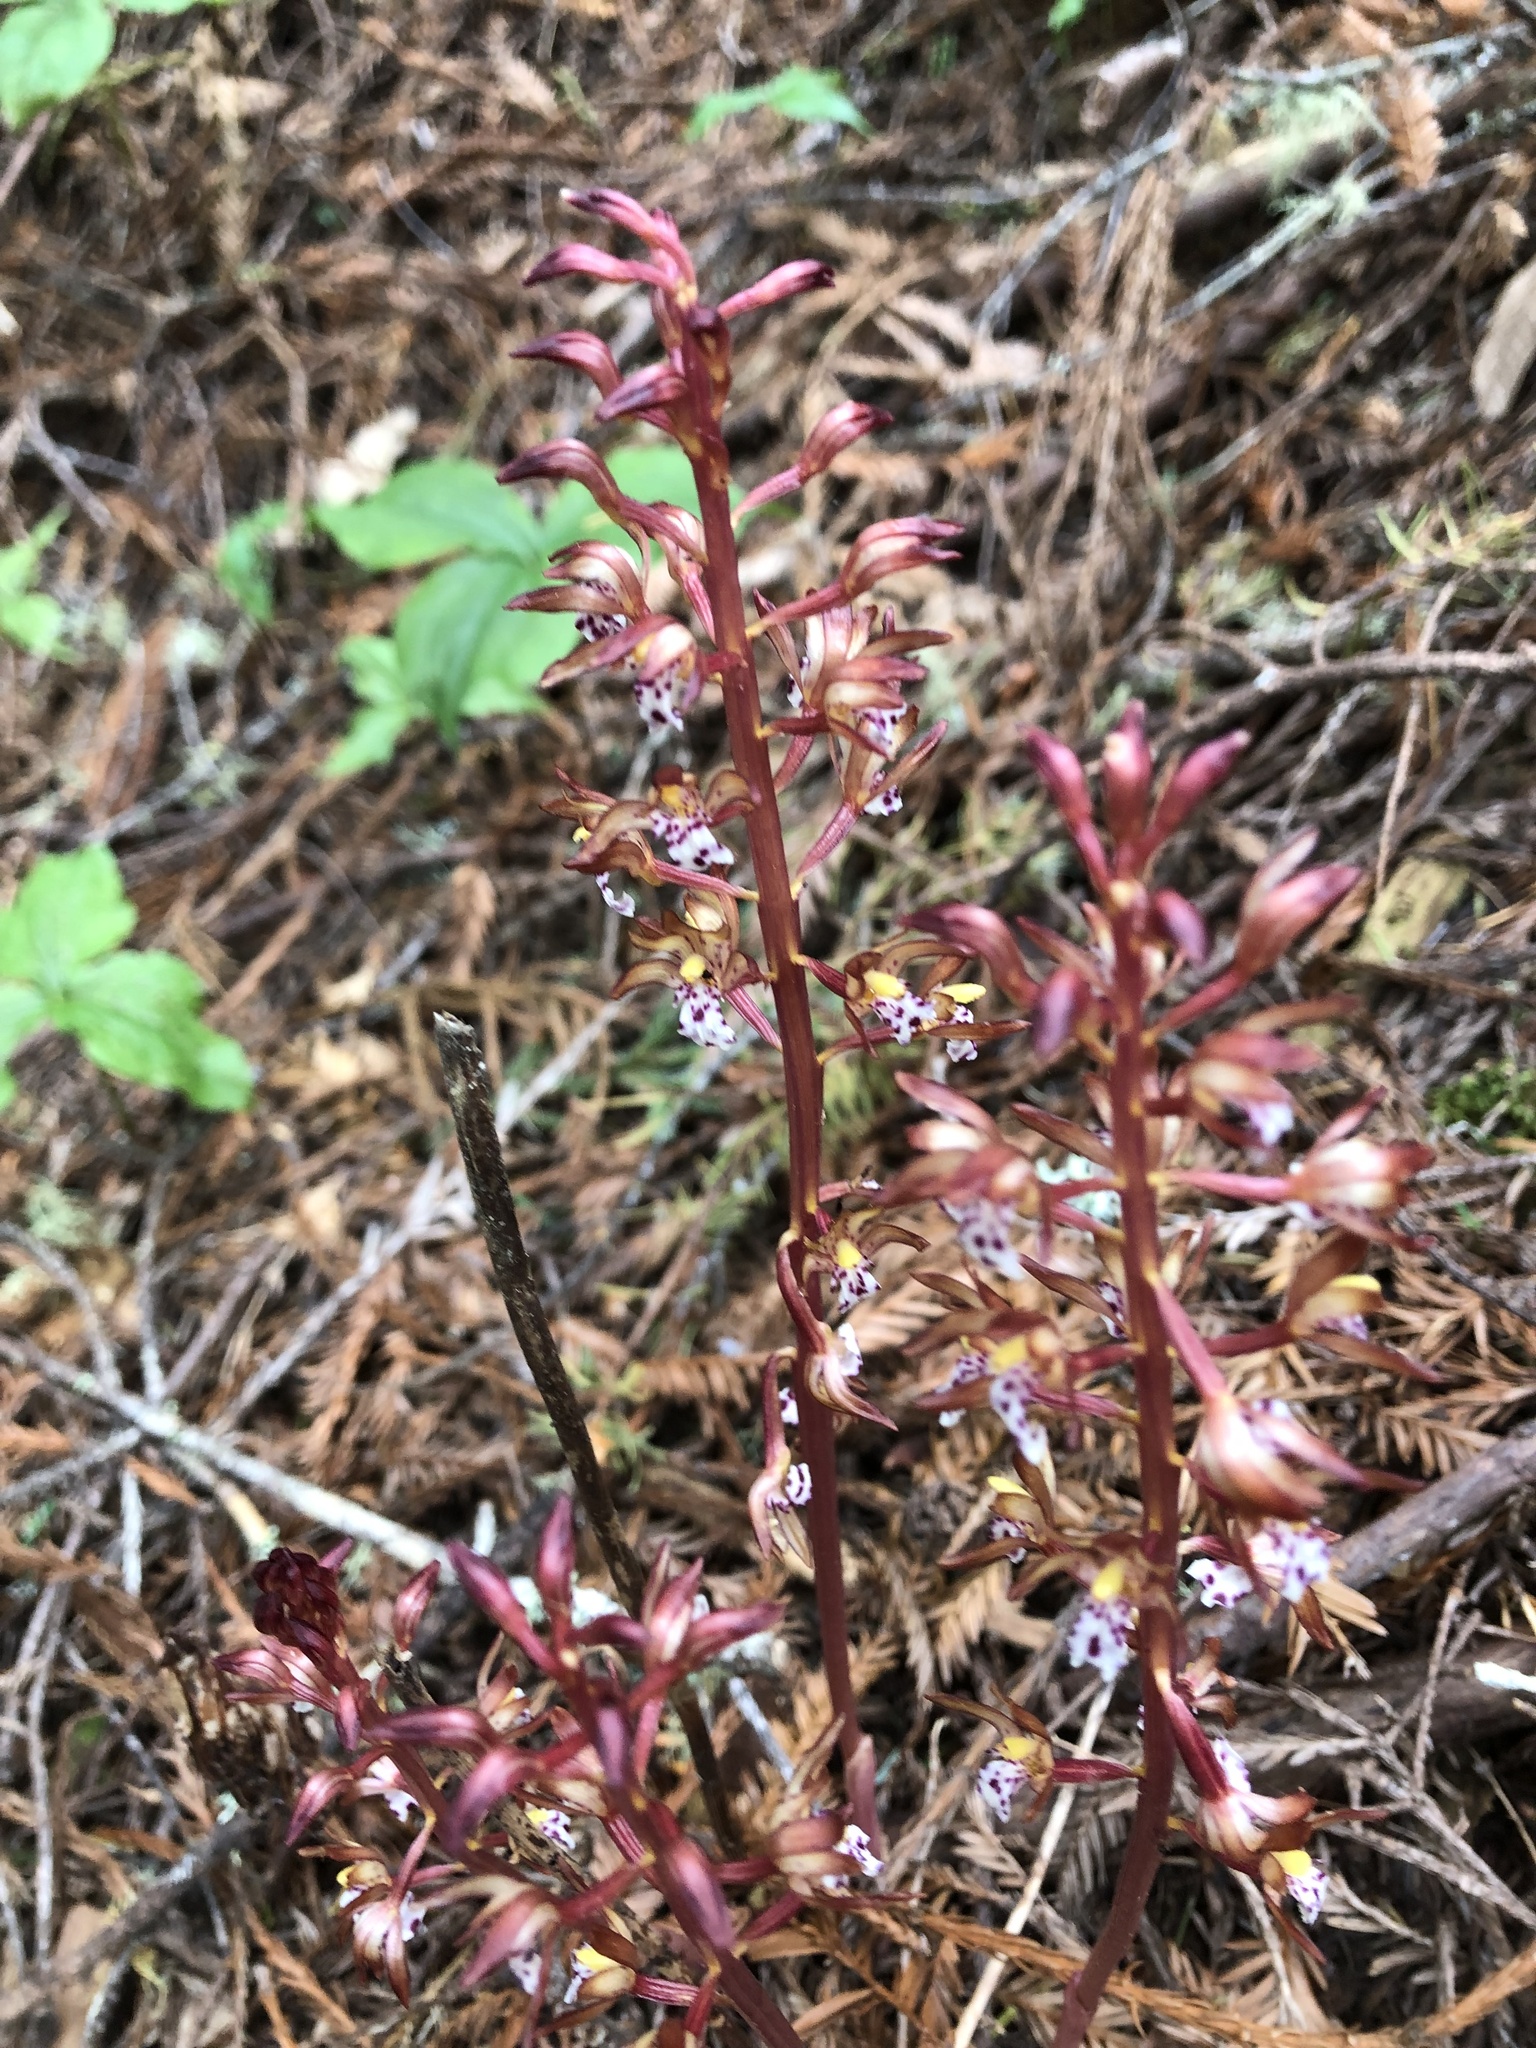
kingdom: Plantae
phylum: Tracheophyta
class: Liliopsida
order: Asparagales
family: Orchidaceae
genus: Corallorhiza
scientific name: Corallorhiza maculata
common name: Spotted coralroot
